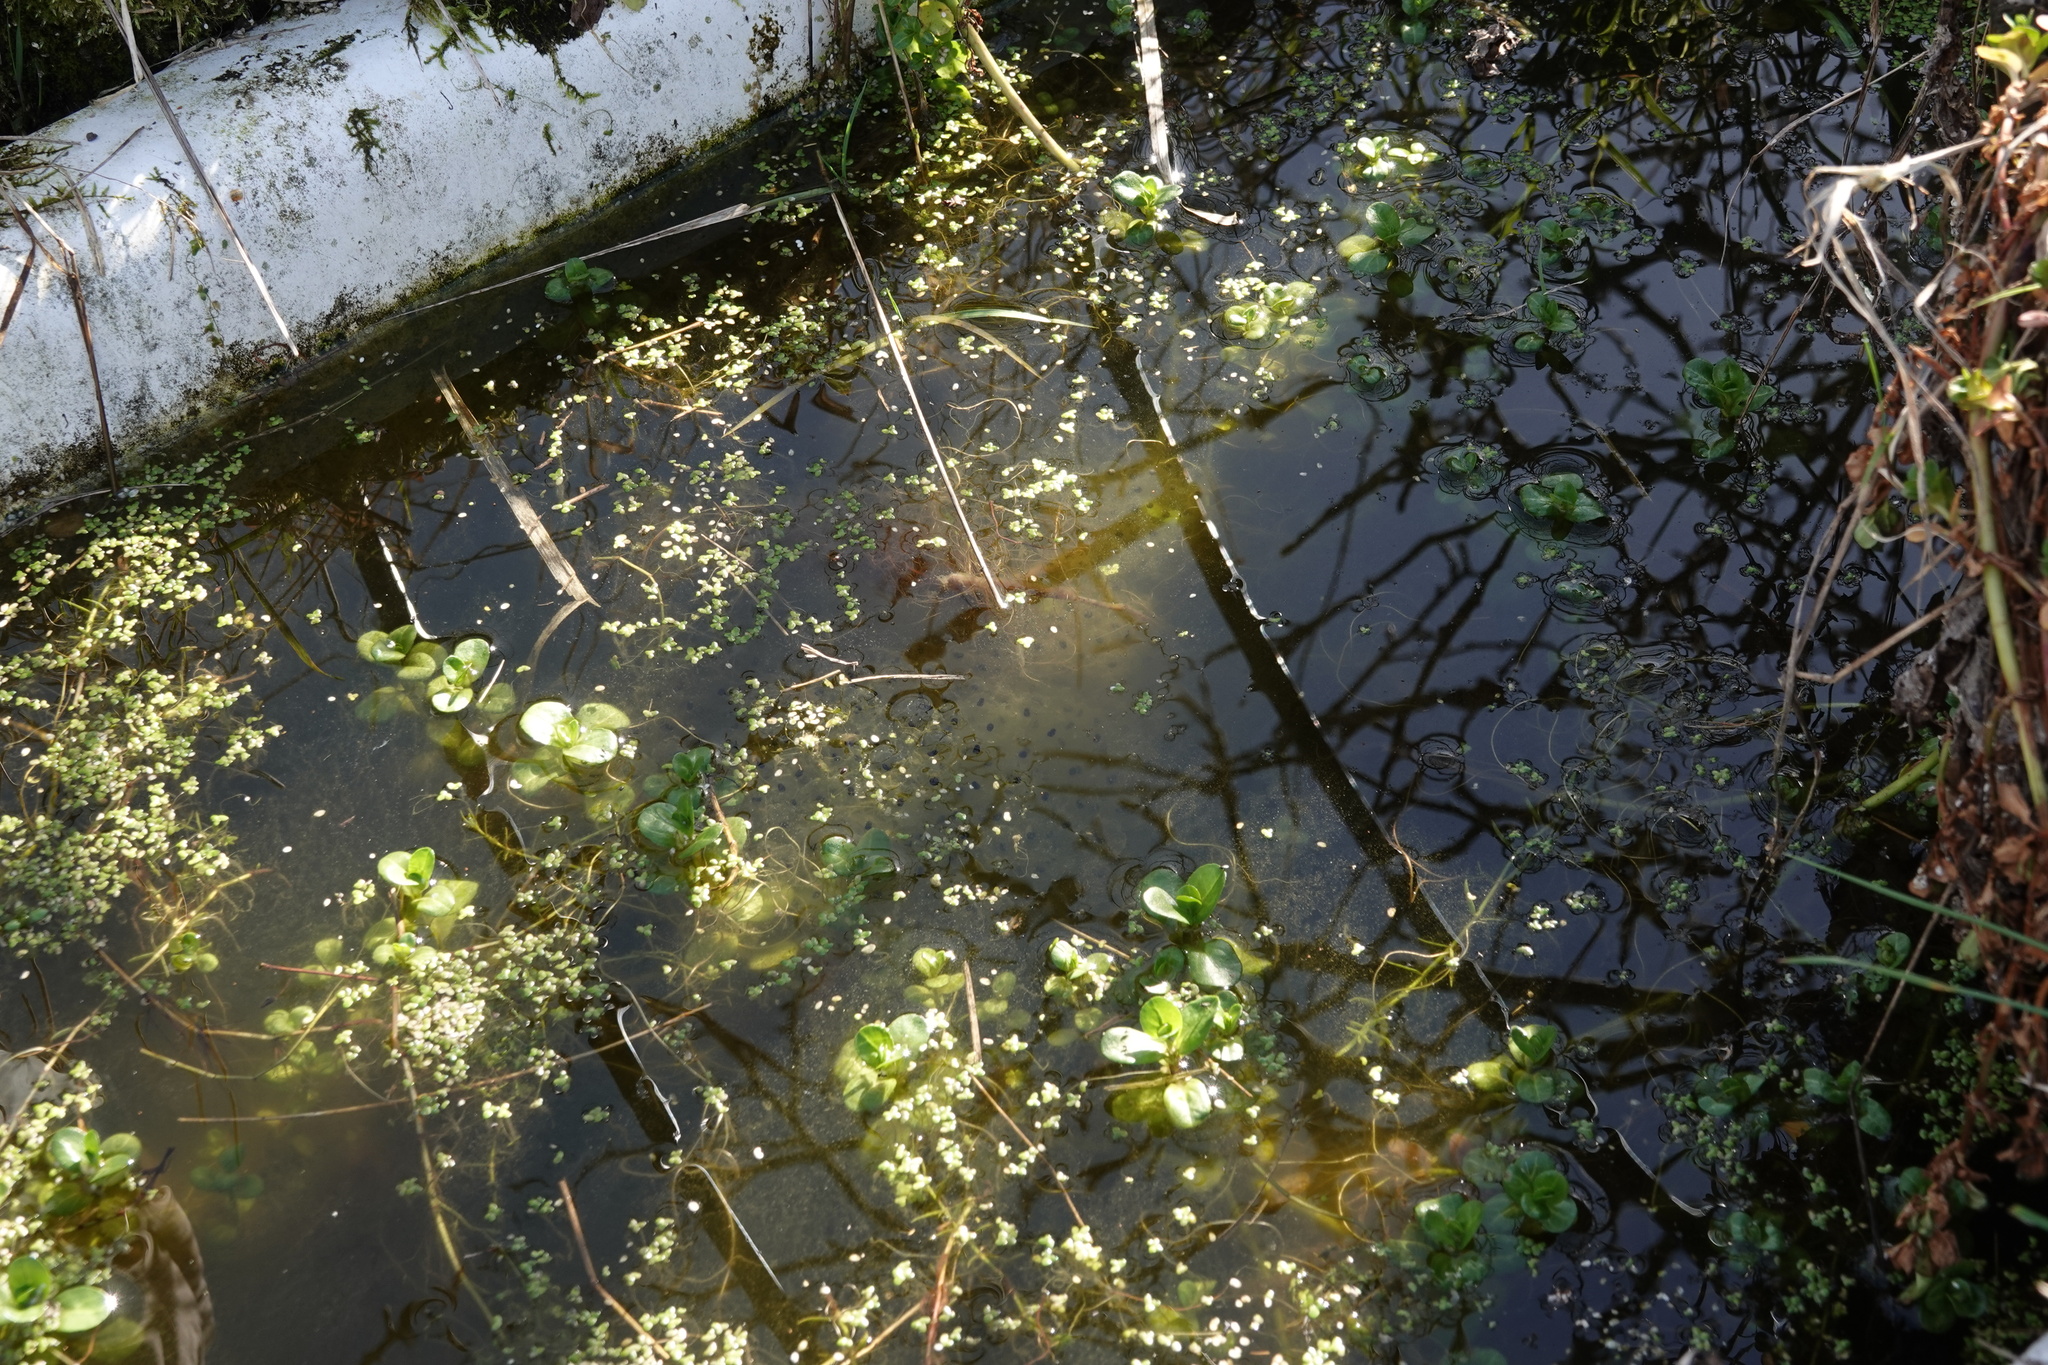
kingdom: Animalia
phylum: Chordata
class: Amphibia
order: Anura
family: Ranidae
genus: Rana
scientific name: Rana temporaria
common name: Common frog
